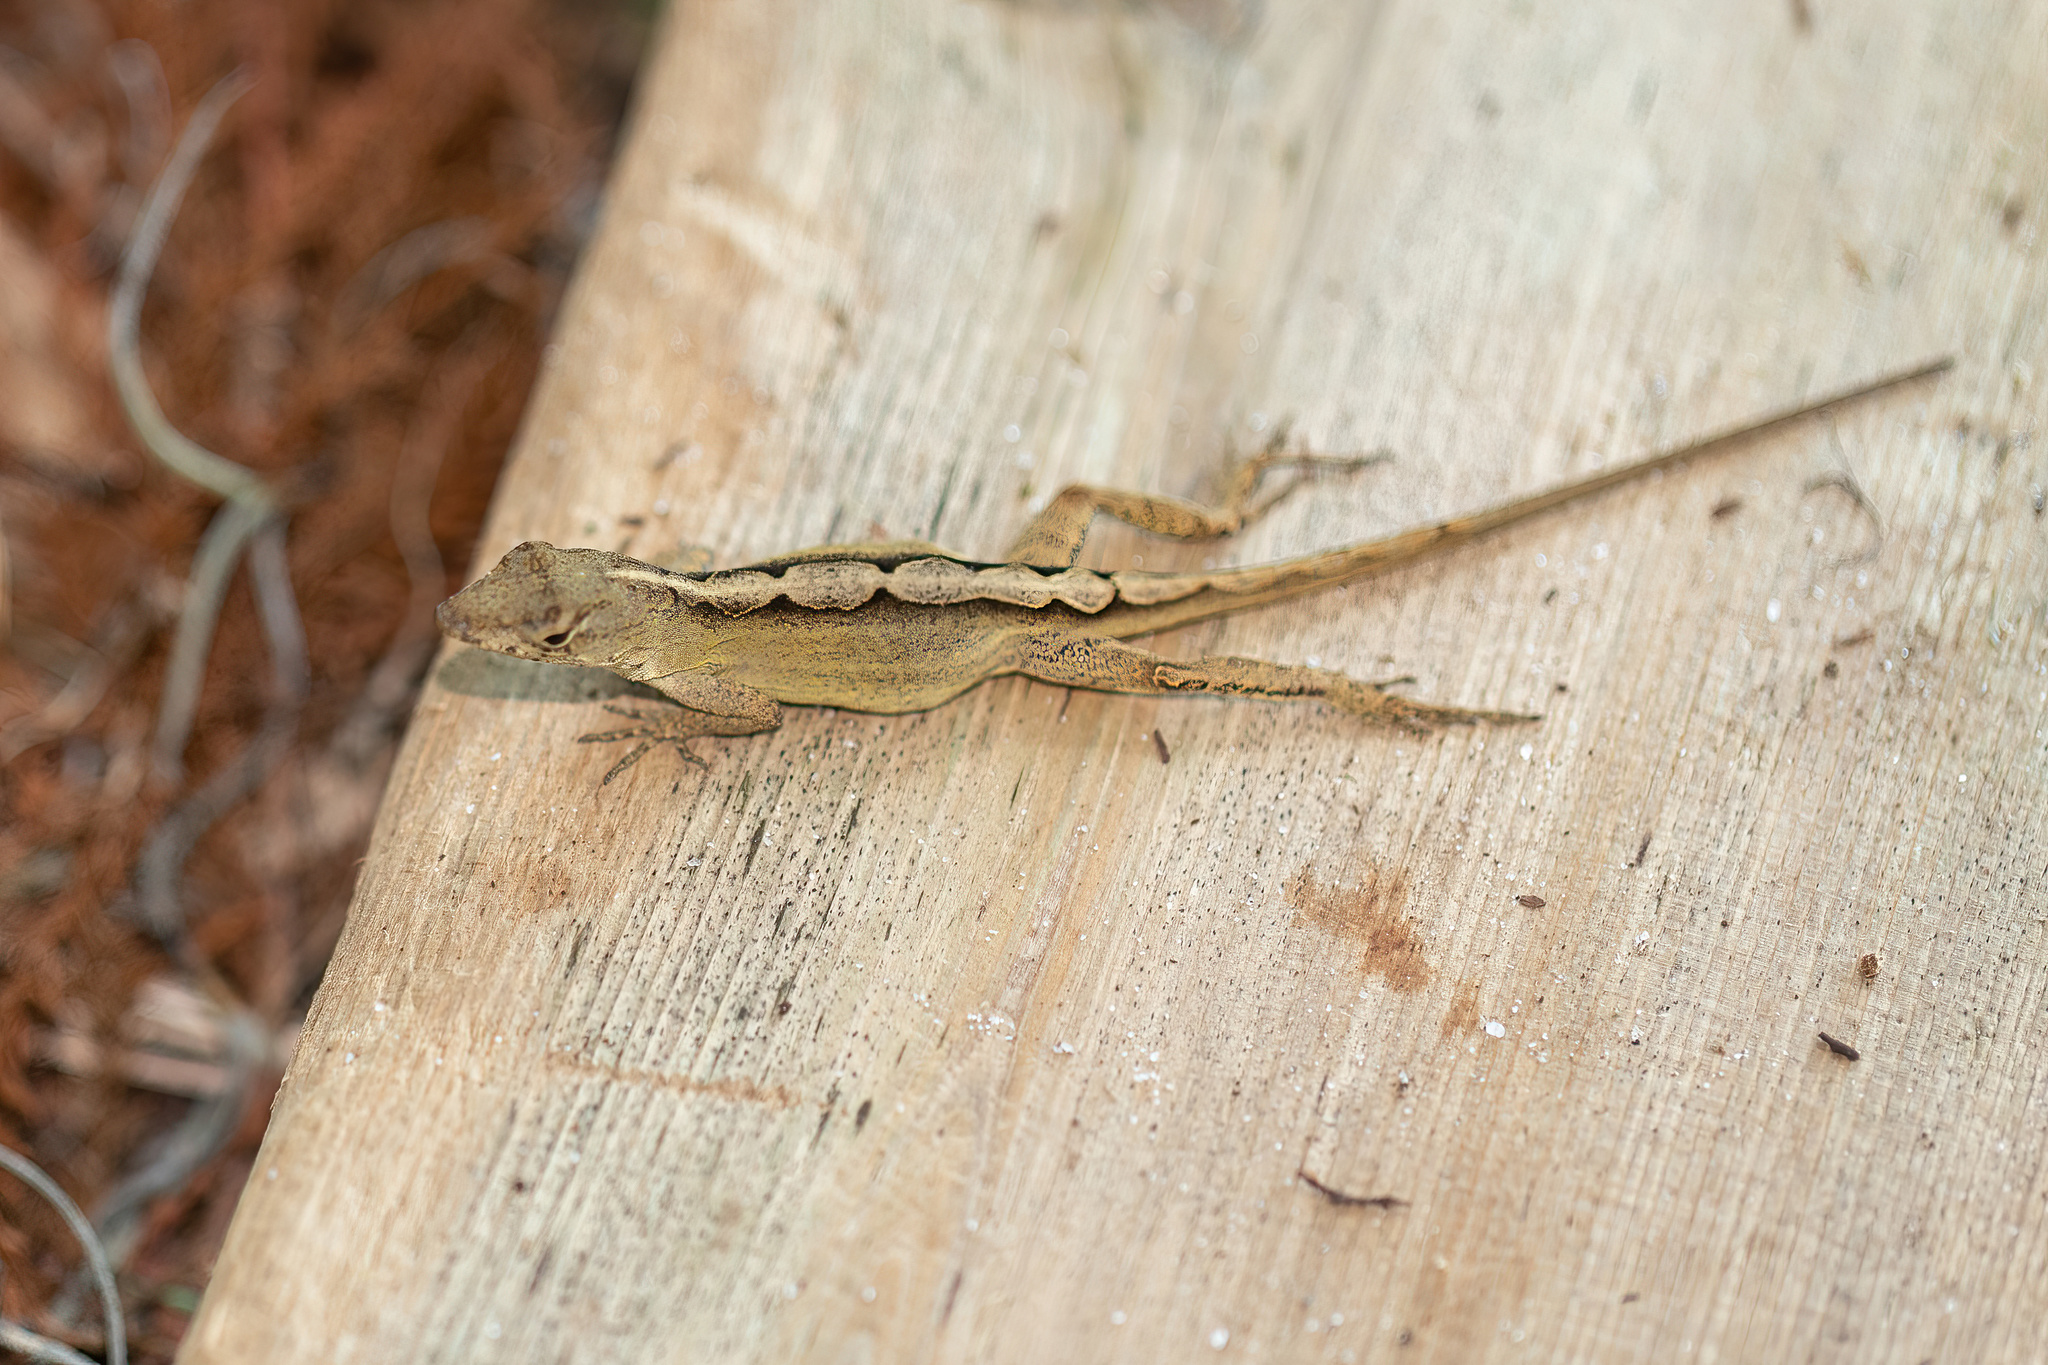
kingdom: Animalia
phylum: Chordata
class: Squamata
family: Dactyloidae
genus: Anolis
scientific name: Anolis sagrei
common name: Brown anole
